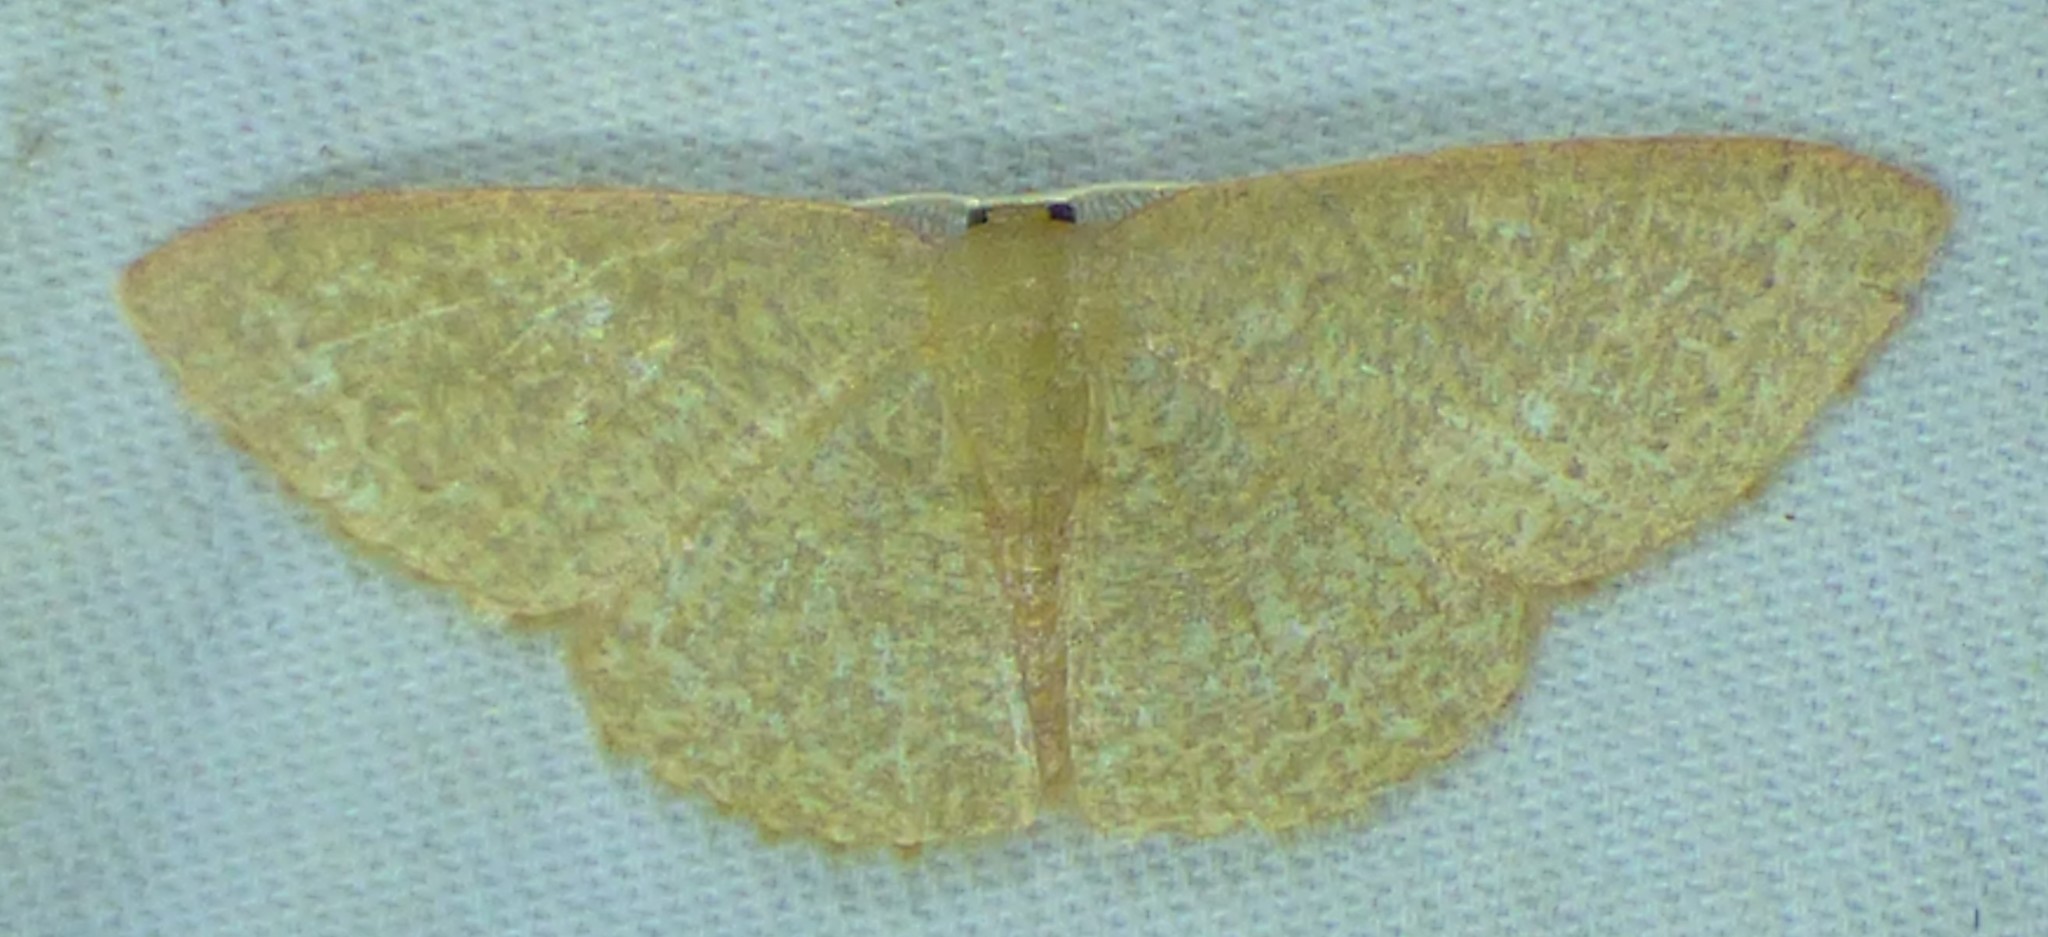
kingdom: Animalia
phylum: Arthropoda
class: Insecta
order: Lepidoptera
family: Geometridae
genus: Pleuroprucha
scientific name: Pleuroprucha insulsaria
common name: Common tan wave
